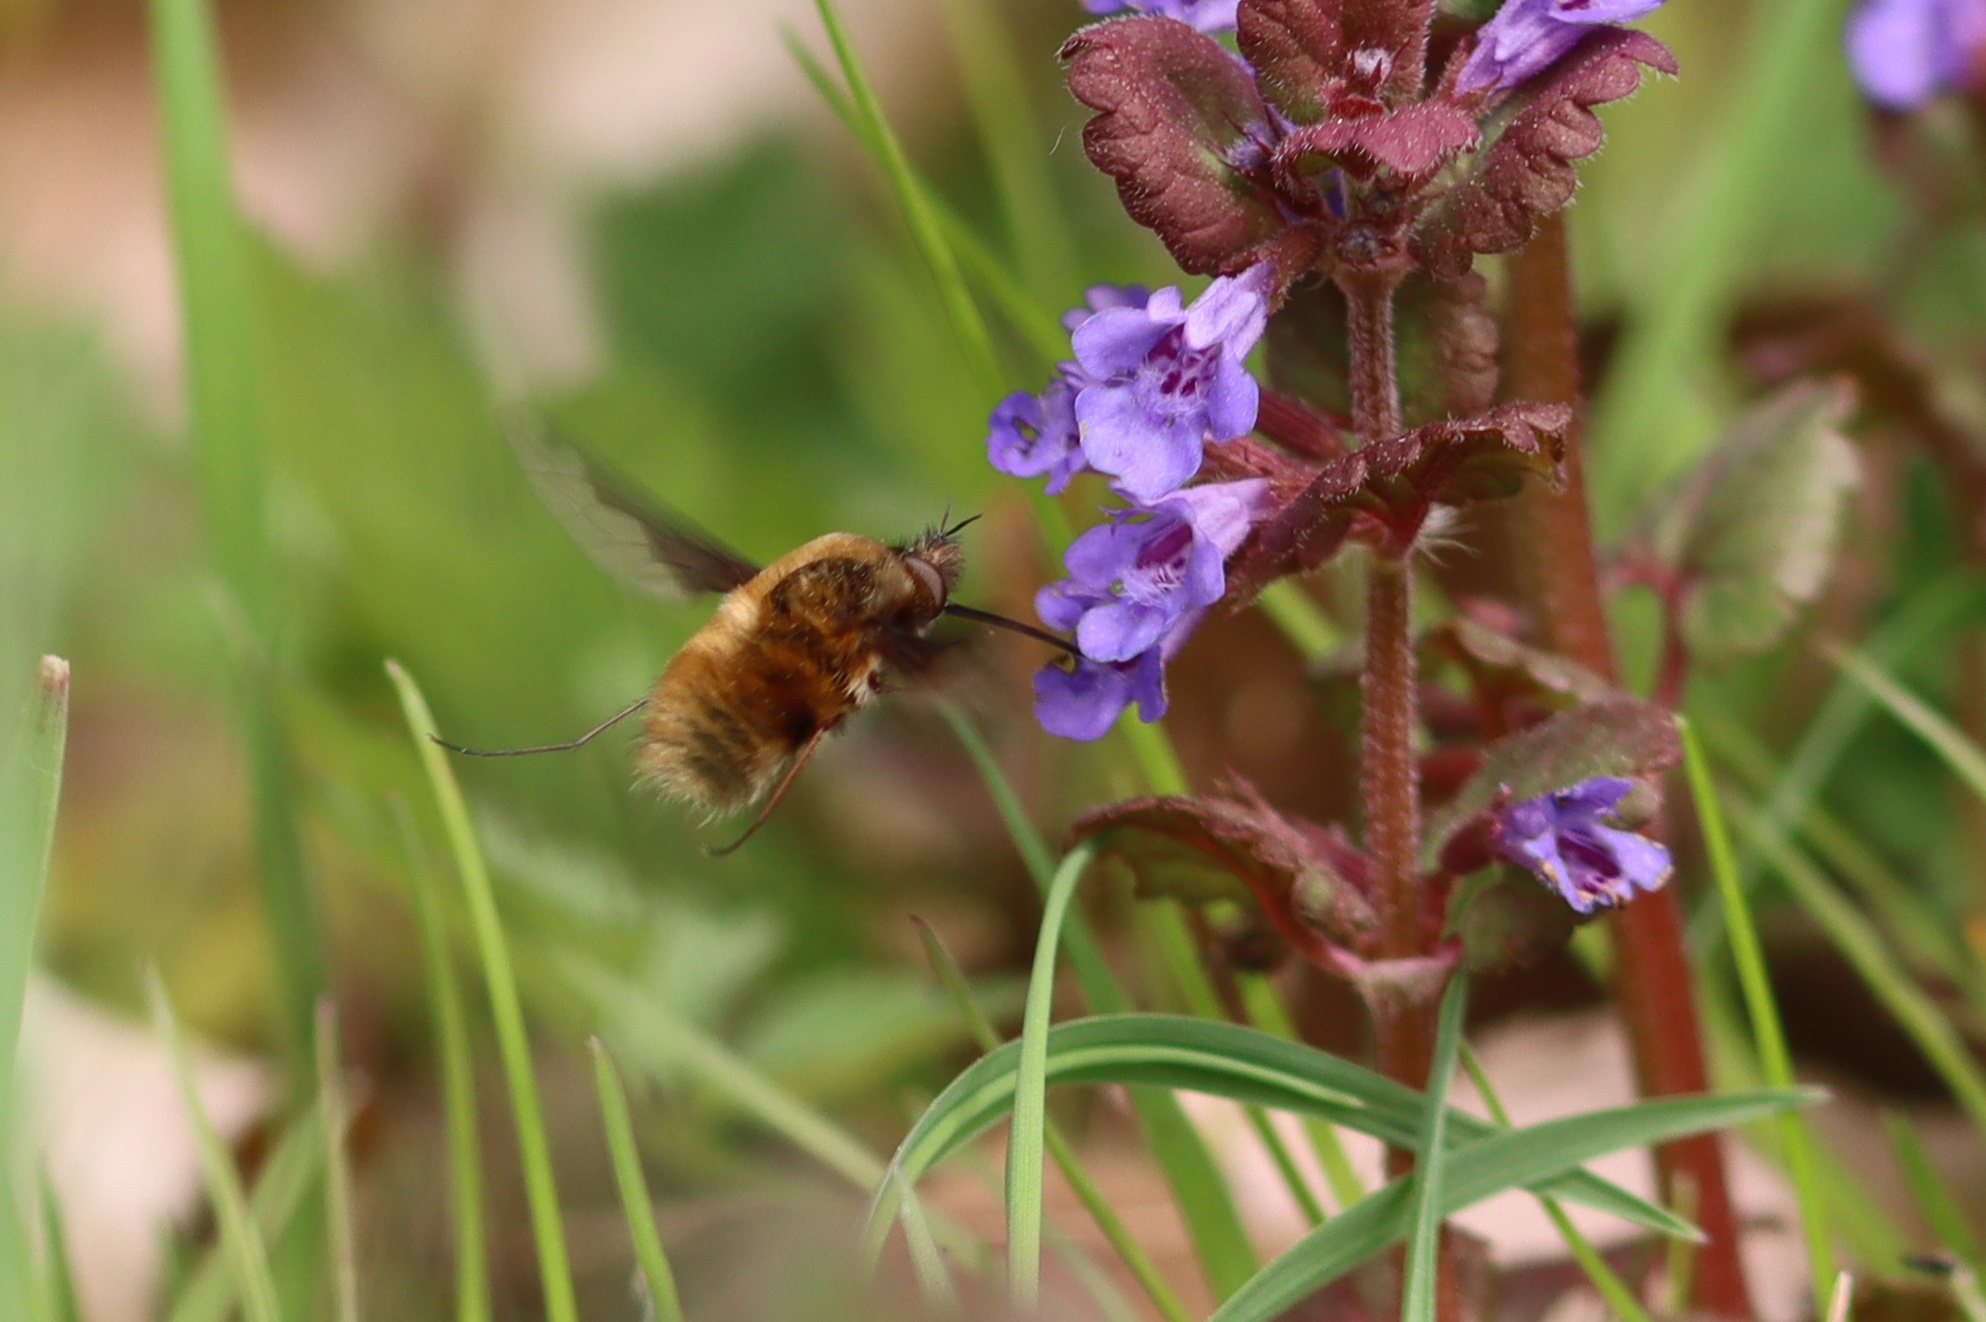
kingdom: Animalia
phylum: Arthropoda
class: Insecta
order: Diptera
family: Bombyliidae
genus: Bombylius
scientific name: Bombylius major
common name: Bee fly
